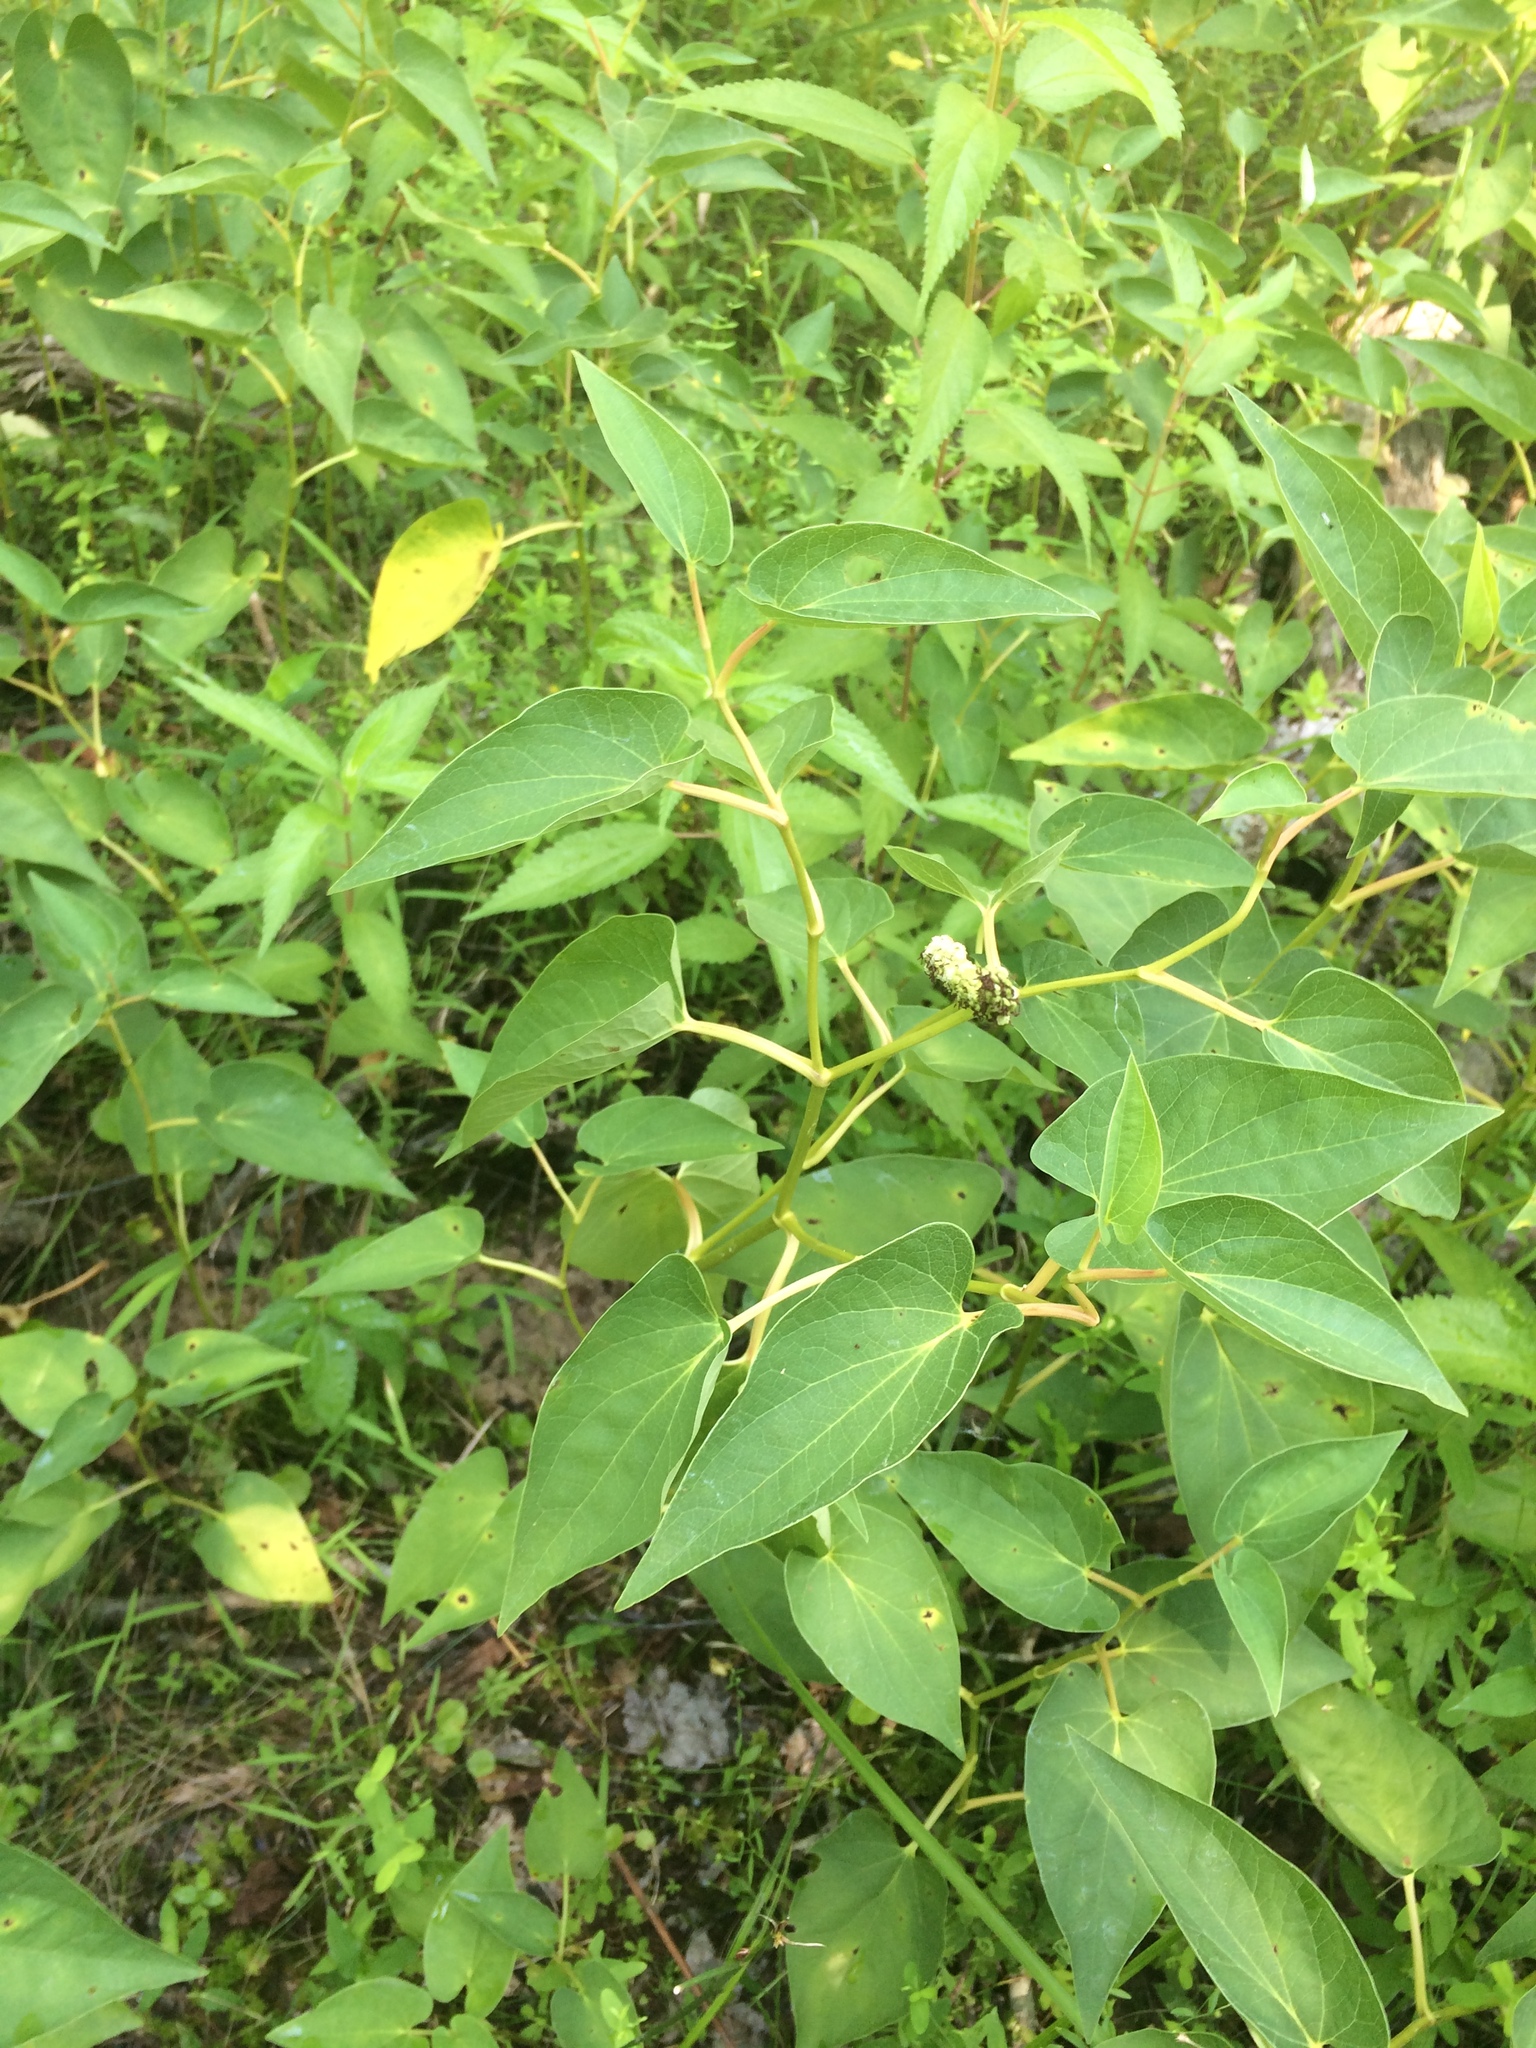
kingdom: Plantae
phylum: Tracheophyta
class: Magnoliopsida
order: Piperales
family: Saururaceae
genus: Saururus
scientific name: Saururus cernuus
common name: Lizard's-tail
